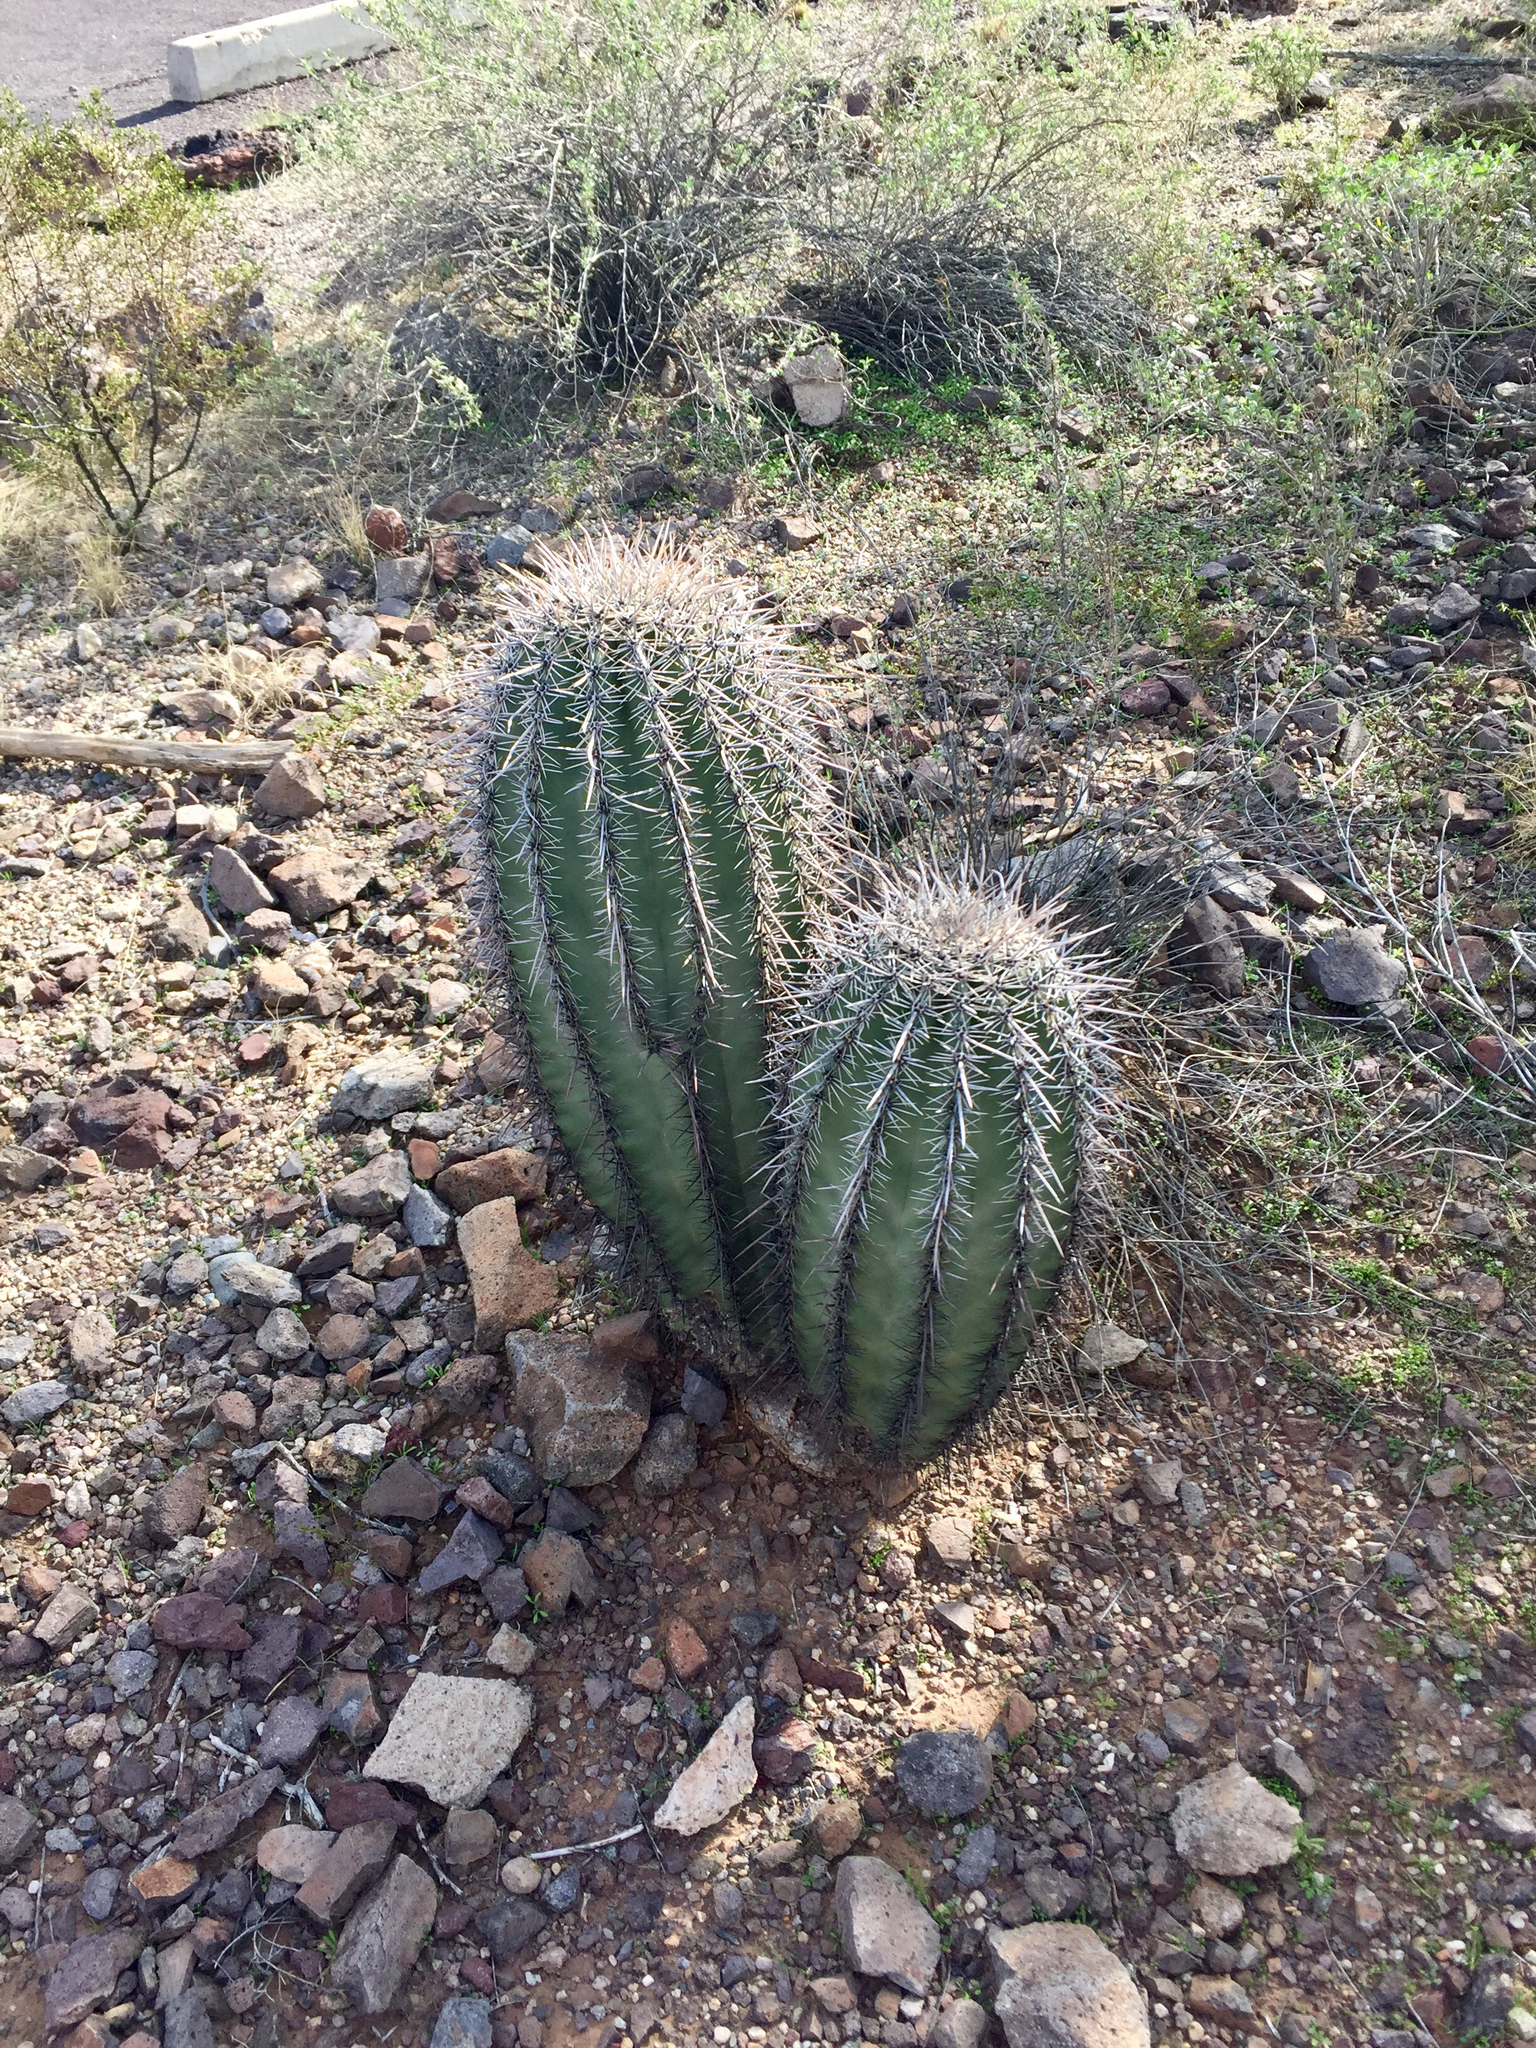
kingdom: Plantae
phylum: Tracheophyta
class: Magnoliopsida
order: Caryophyllales
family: Cactaceae
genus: Carnegiea
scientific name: Carnegiea gigantea
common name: Saguaro
